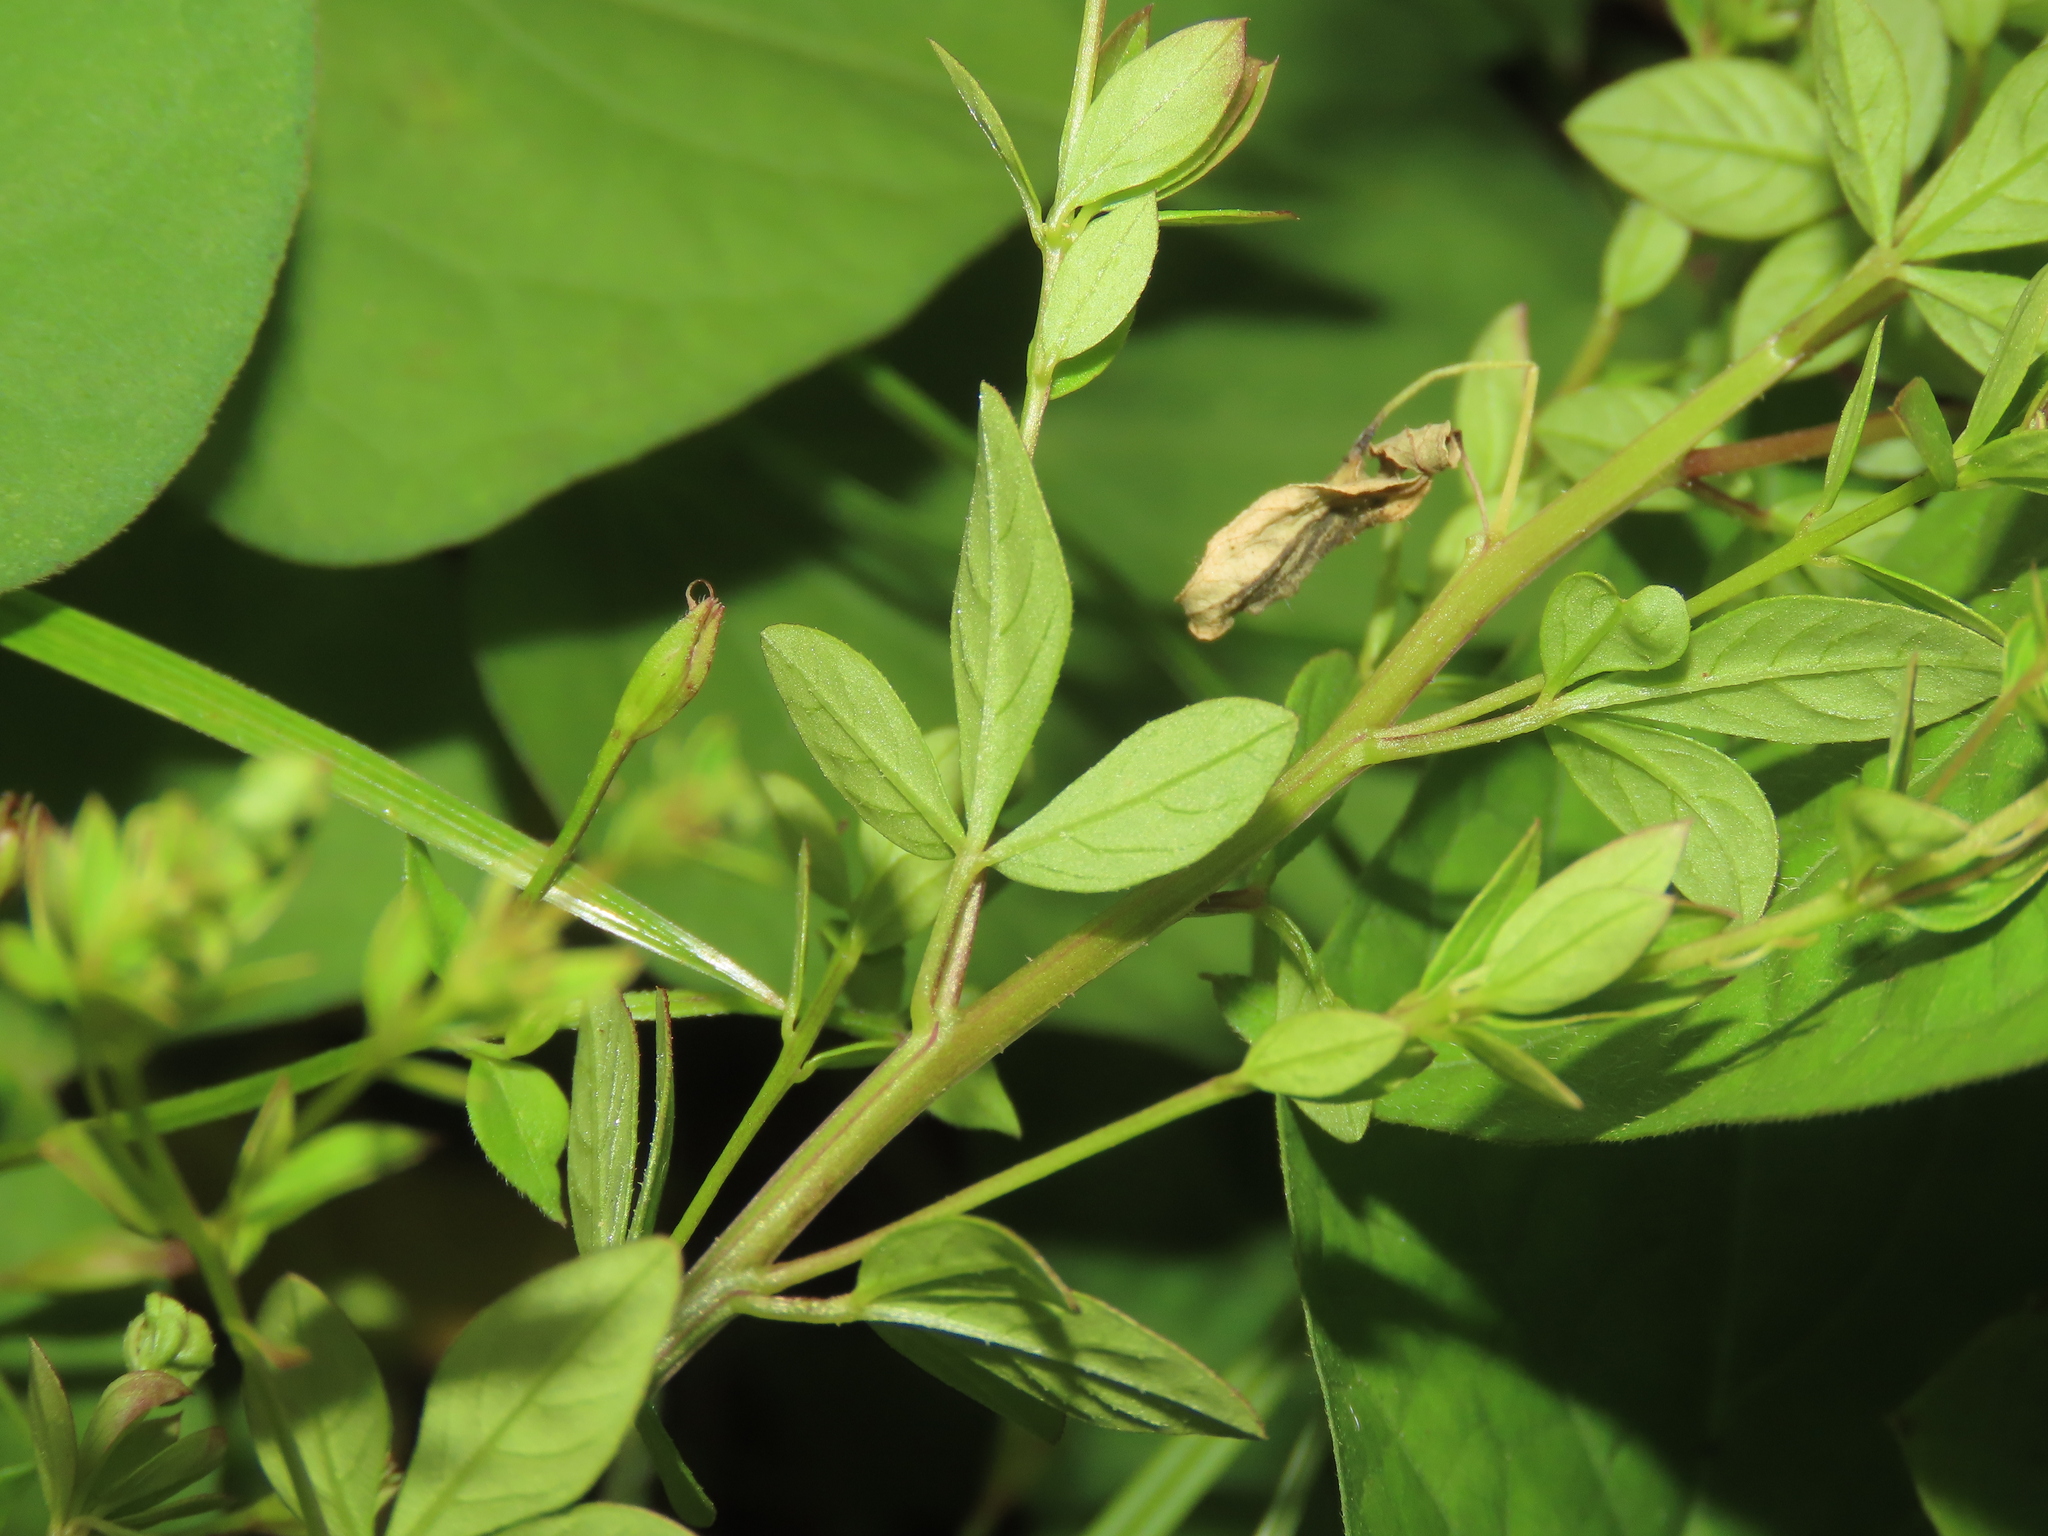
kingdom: Plantae
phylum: Tracheophyta
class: Magnoliopsida
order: Brassicales
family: Cleomaceae
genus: Sieruela
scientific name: Sieruela rutidosperma
